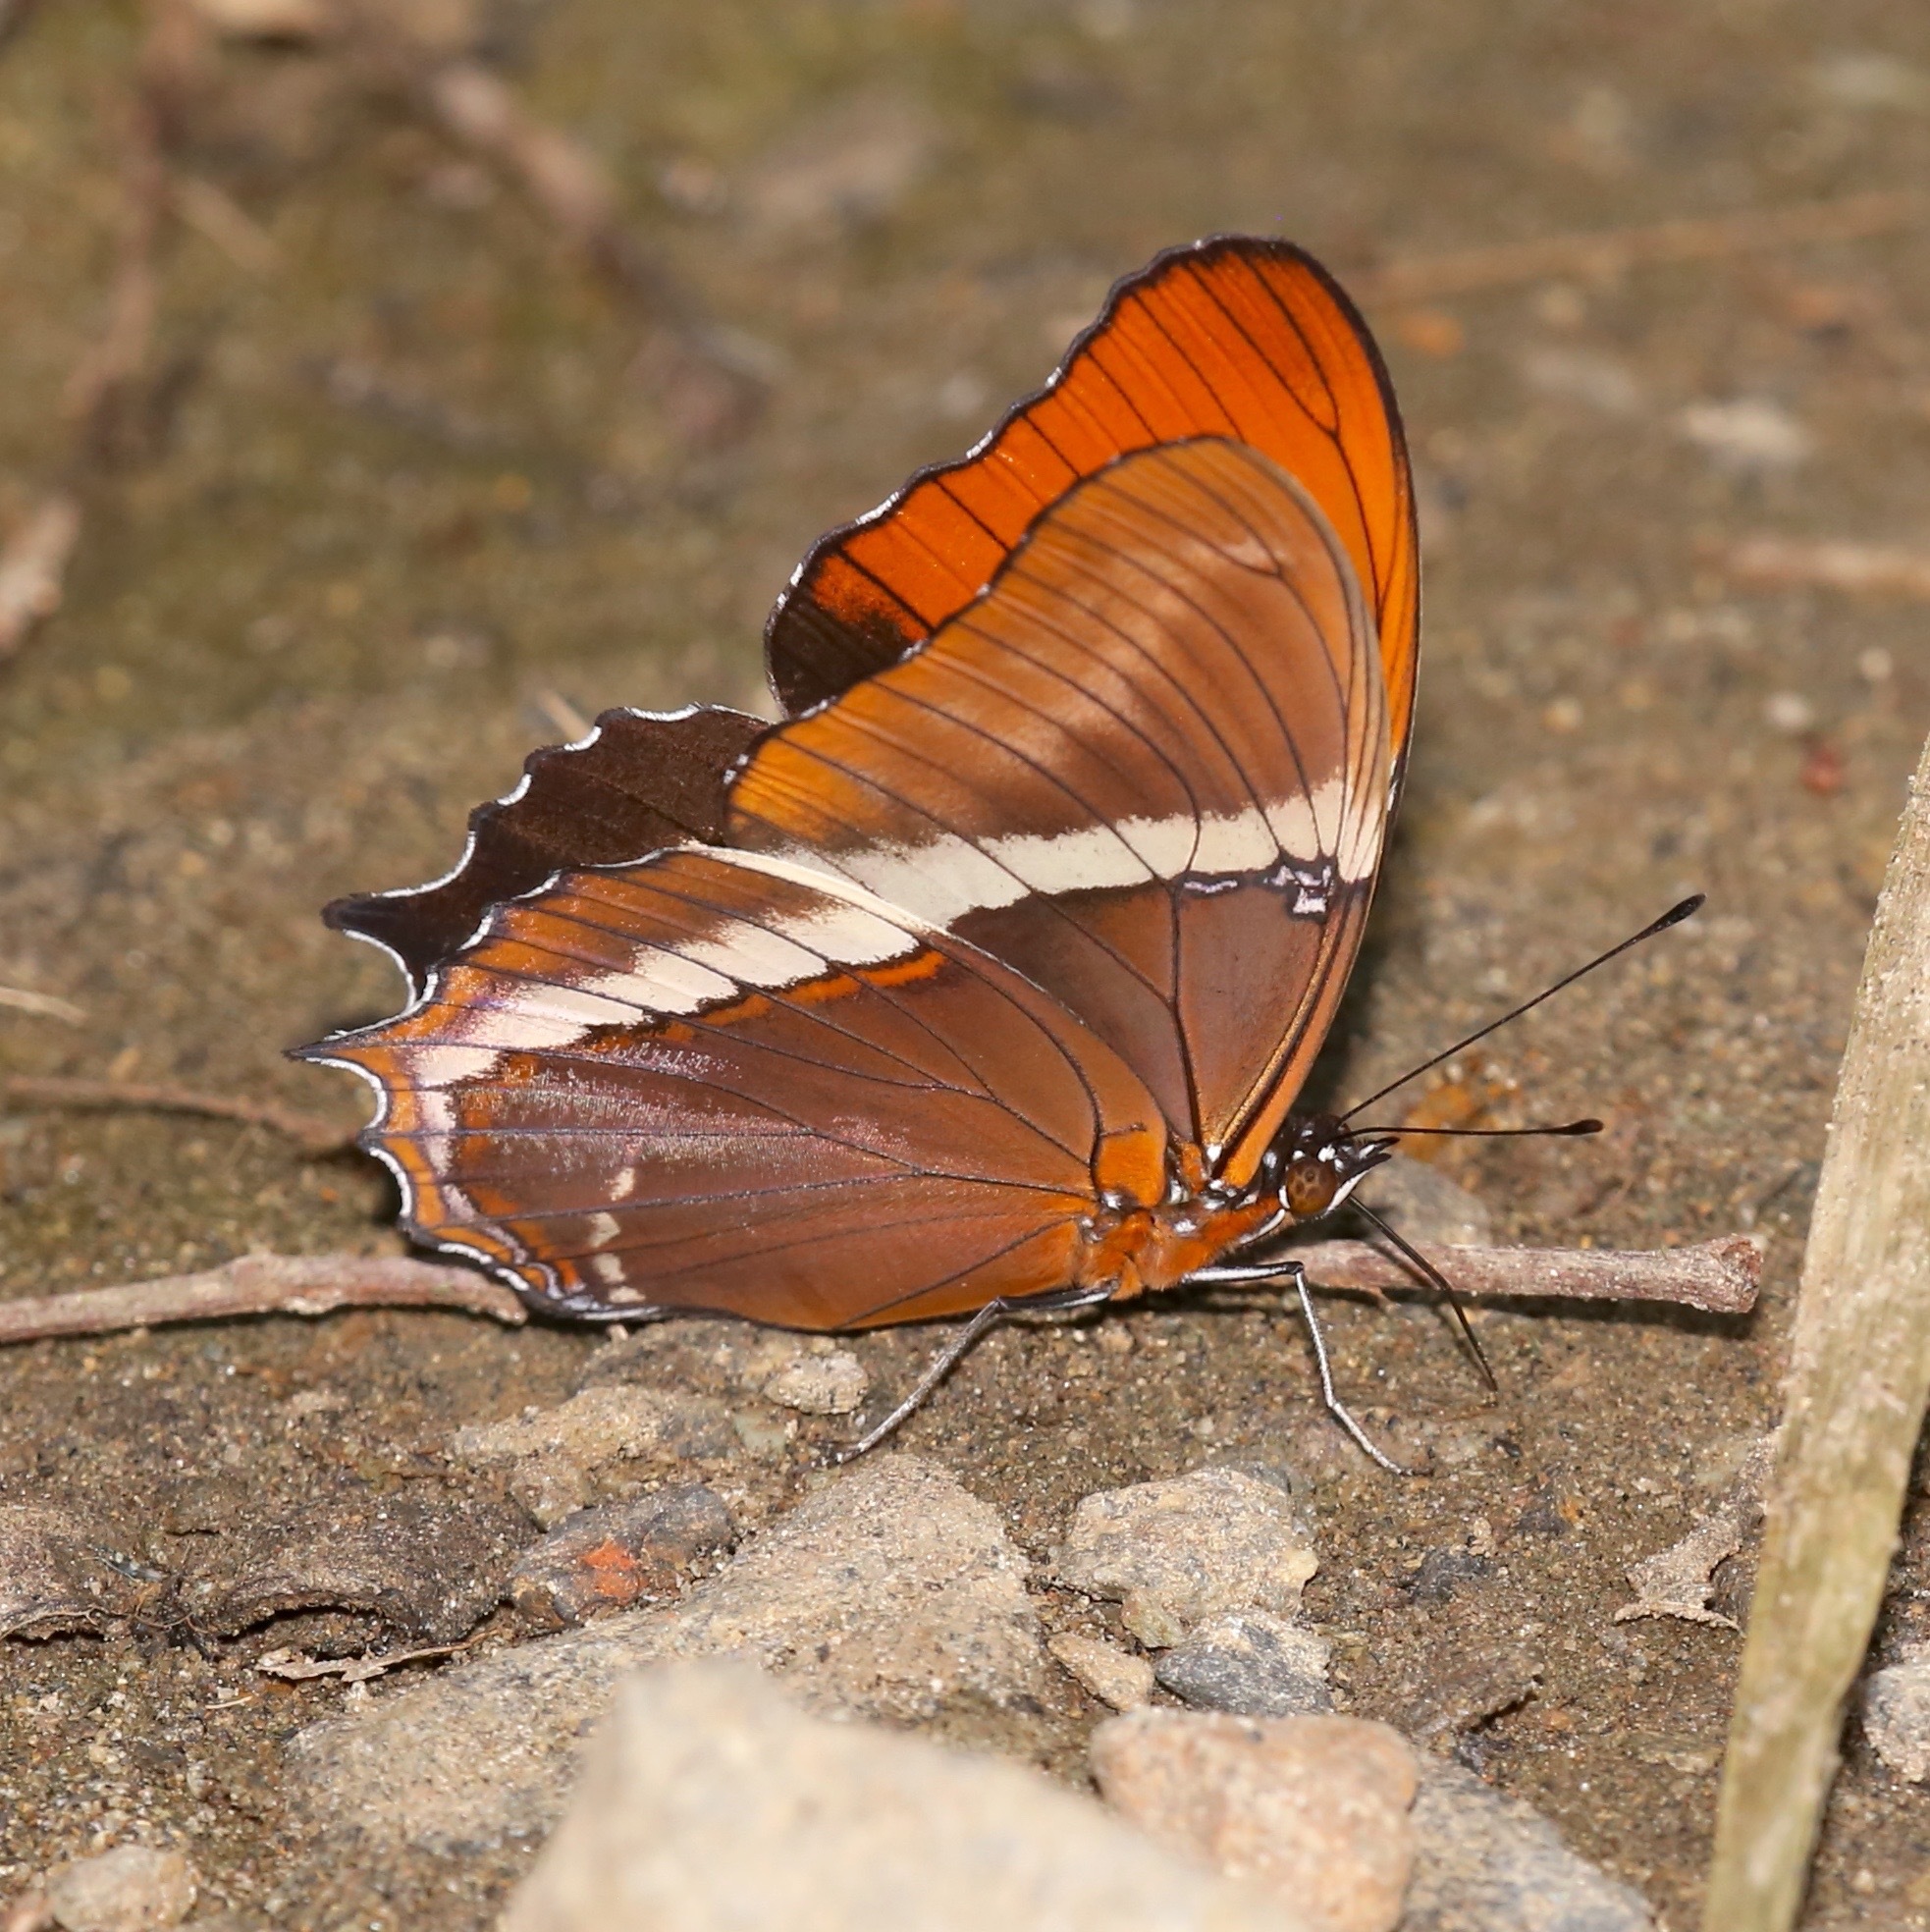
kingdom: Animalia
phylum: Arthropoda
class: Insecta
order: Lepidoptera
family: Nymphalidae
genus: Siproeta
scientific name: Siproeta epaphus
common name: Rusty-tipped page
